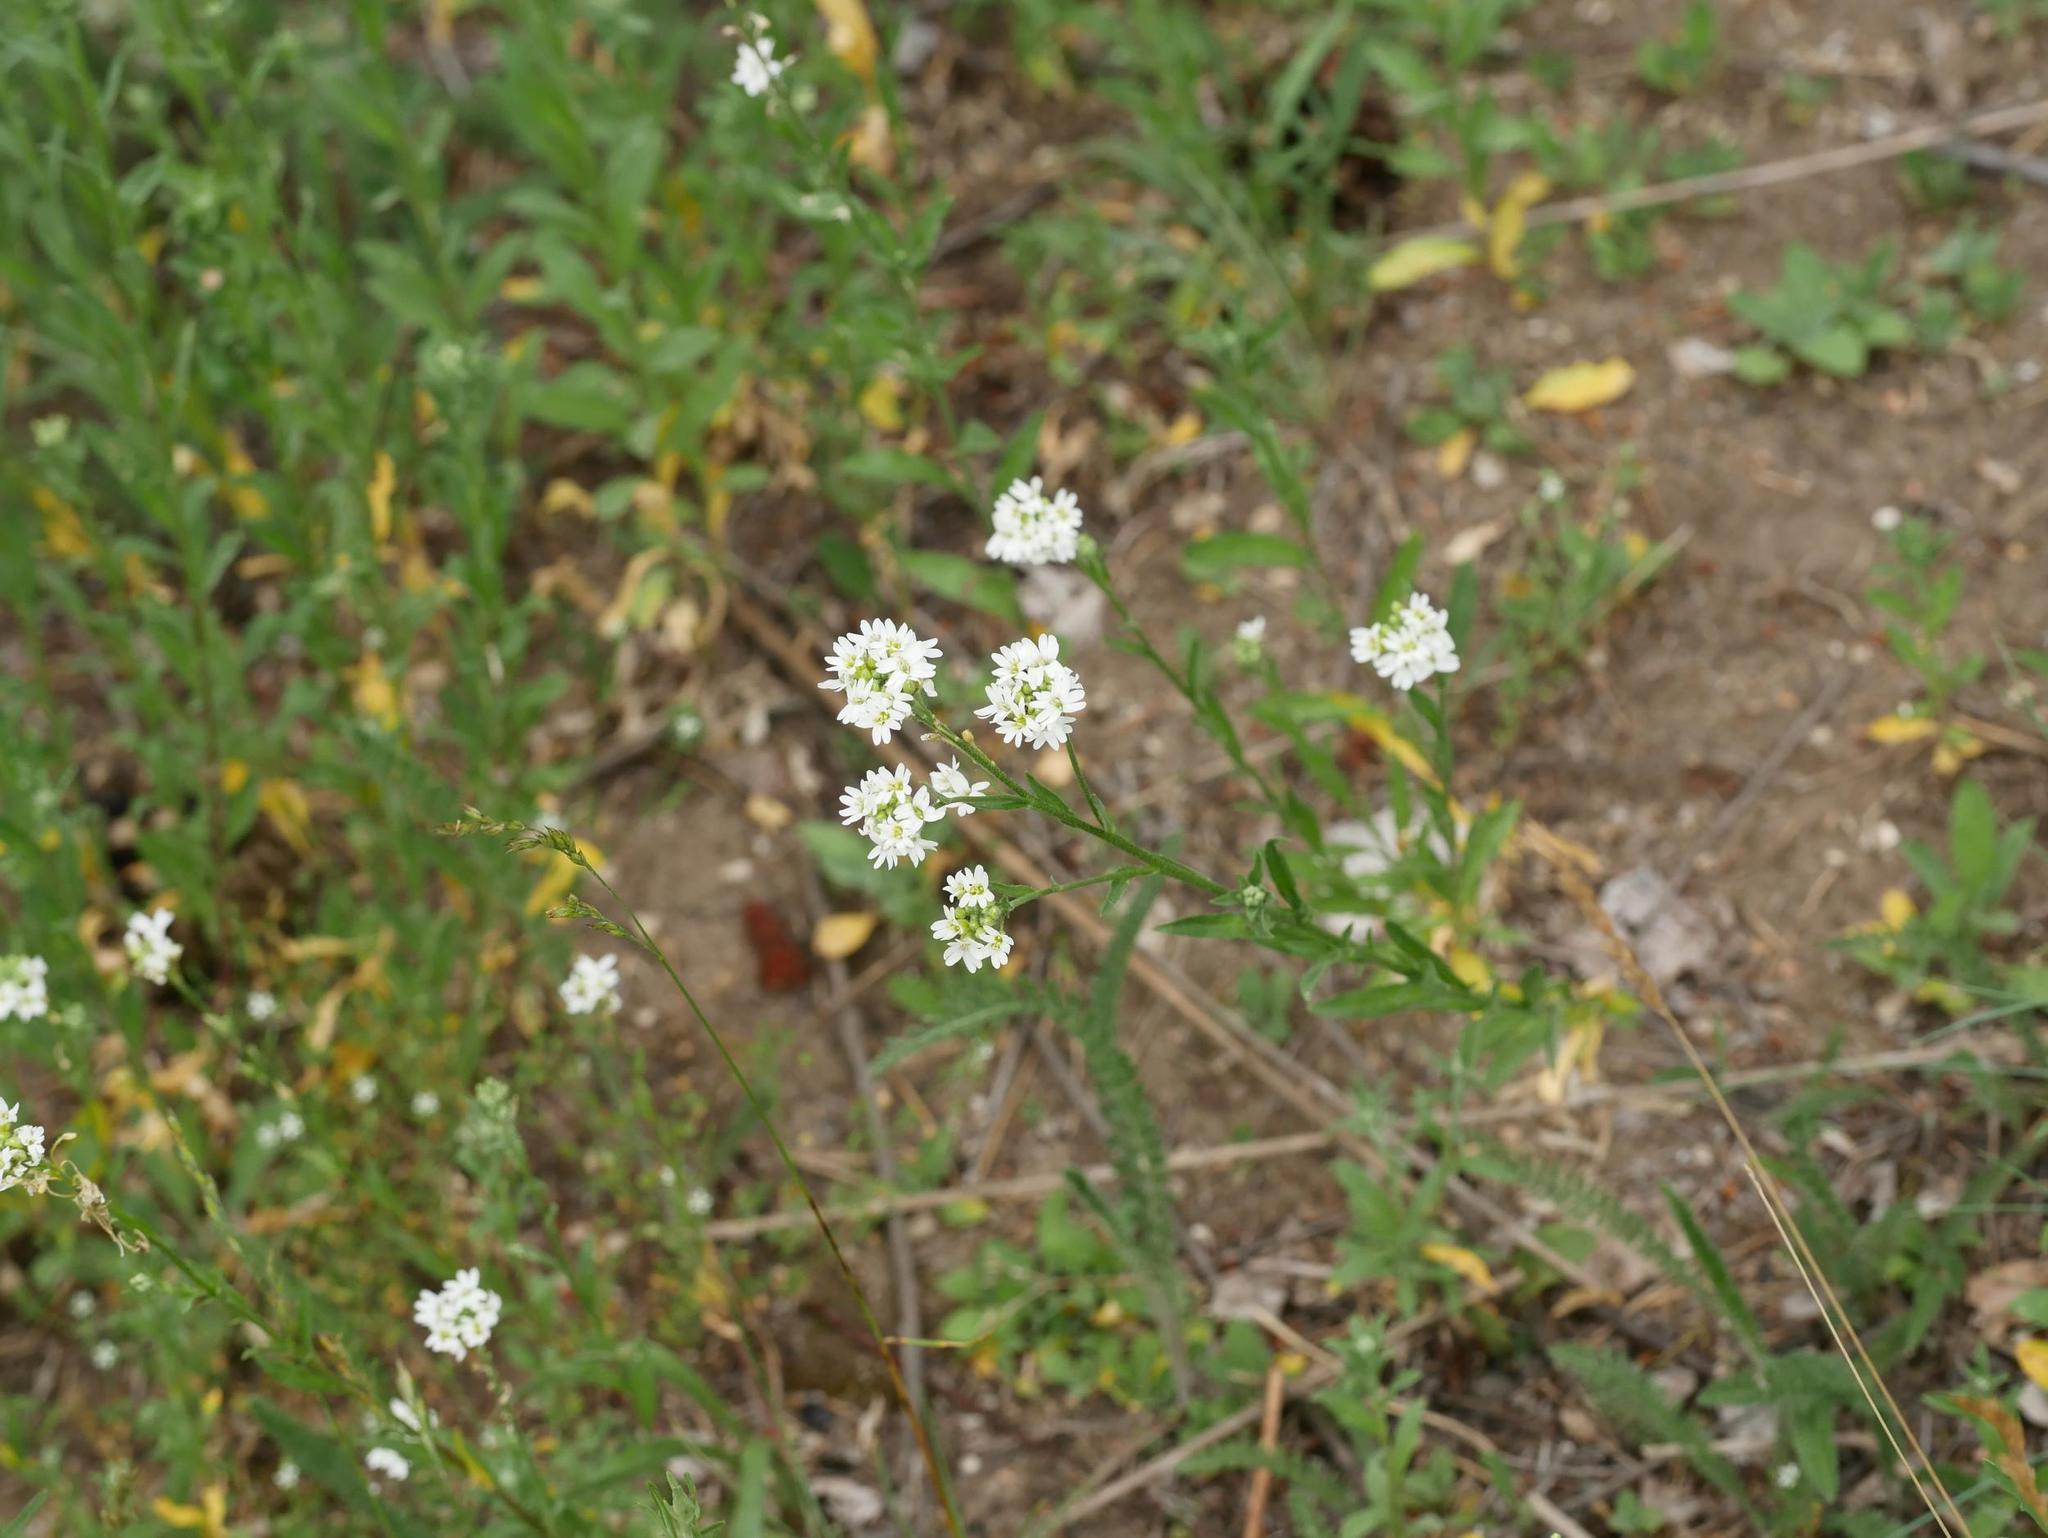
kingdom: Plantae
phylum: Tracheophyta
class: Magnoliopsida
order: Brassicales
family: Brassicaceae
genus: Berteroa
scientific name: Berteroa incana
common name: Hoary alison
